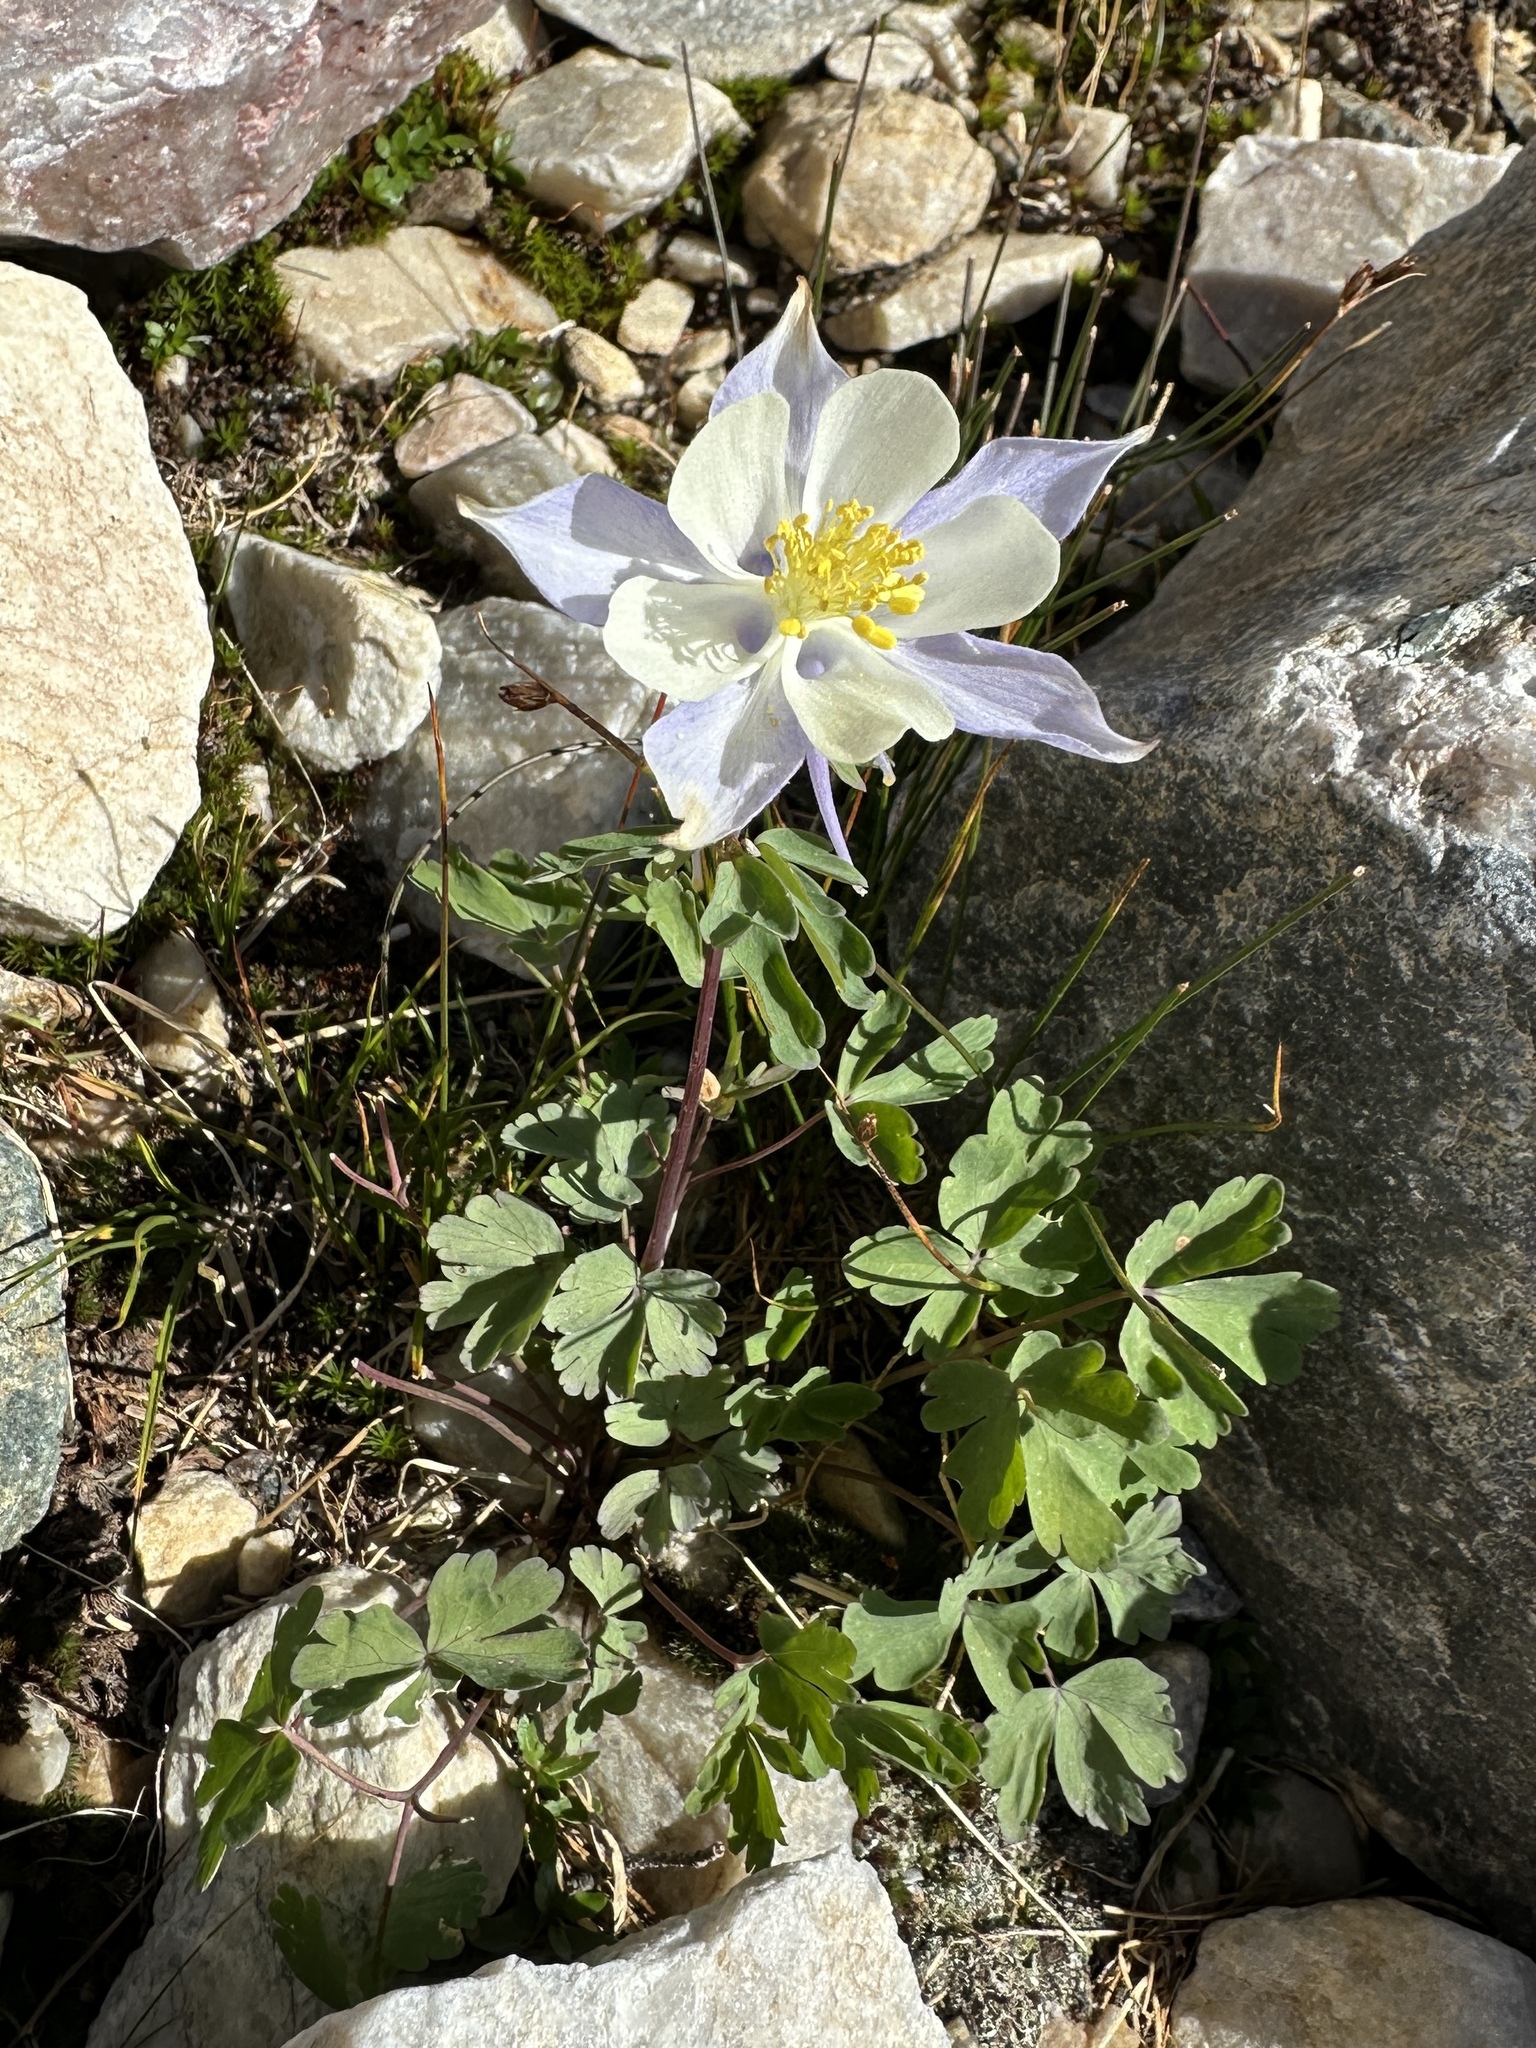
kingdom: Plantae
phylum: Tracheophyta
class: Magnoliopsida
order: Ranunculales
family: Ranunculaceae
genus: Aquilegia
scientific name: Aquilegia coerulea
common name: Rocky mountain columbine
